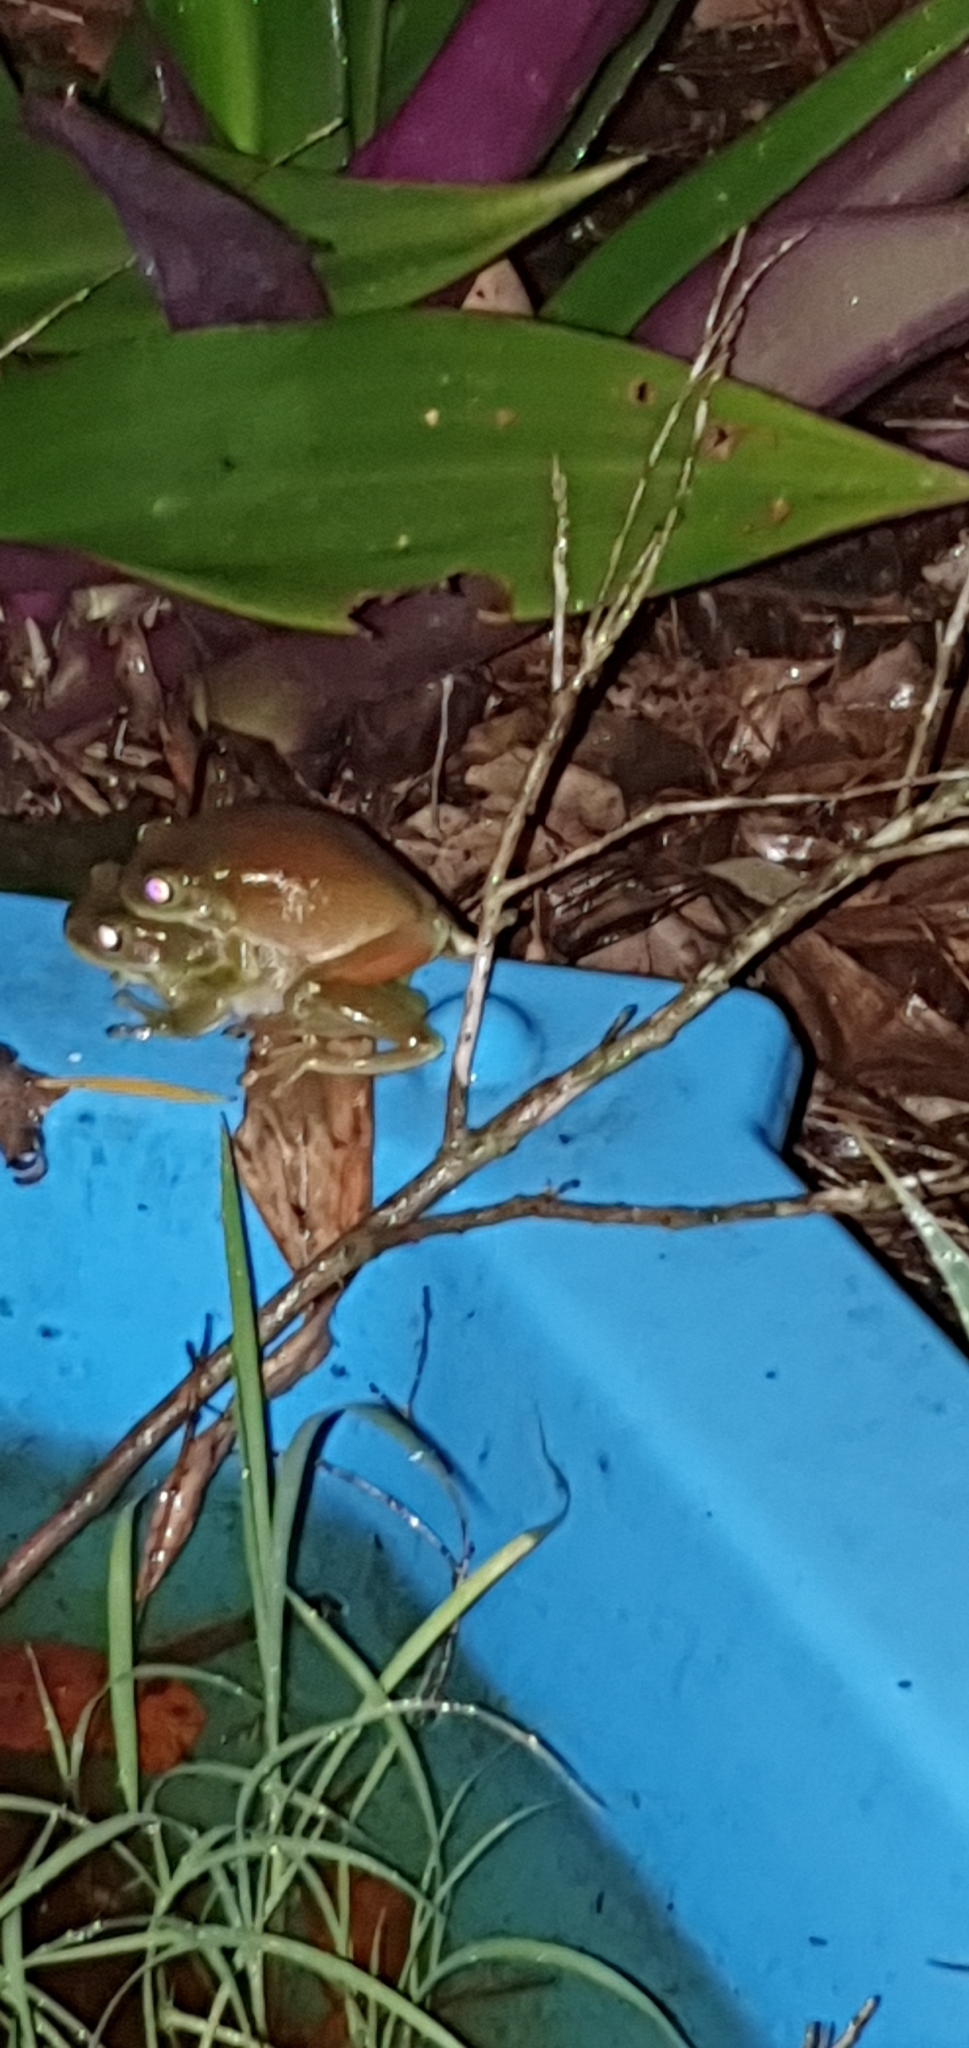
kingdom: Animalia
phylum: Chordata
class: Amphibia
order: Anura
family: Pelodryadidae
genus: Ranoidea
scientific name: Ranoidea caerulea
